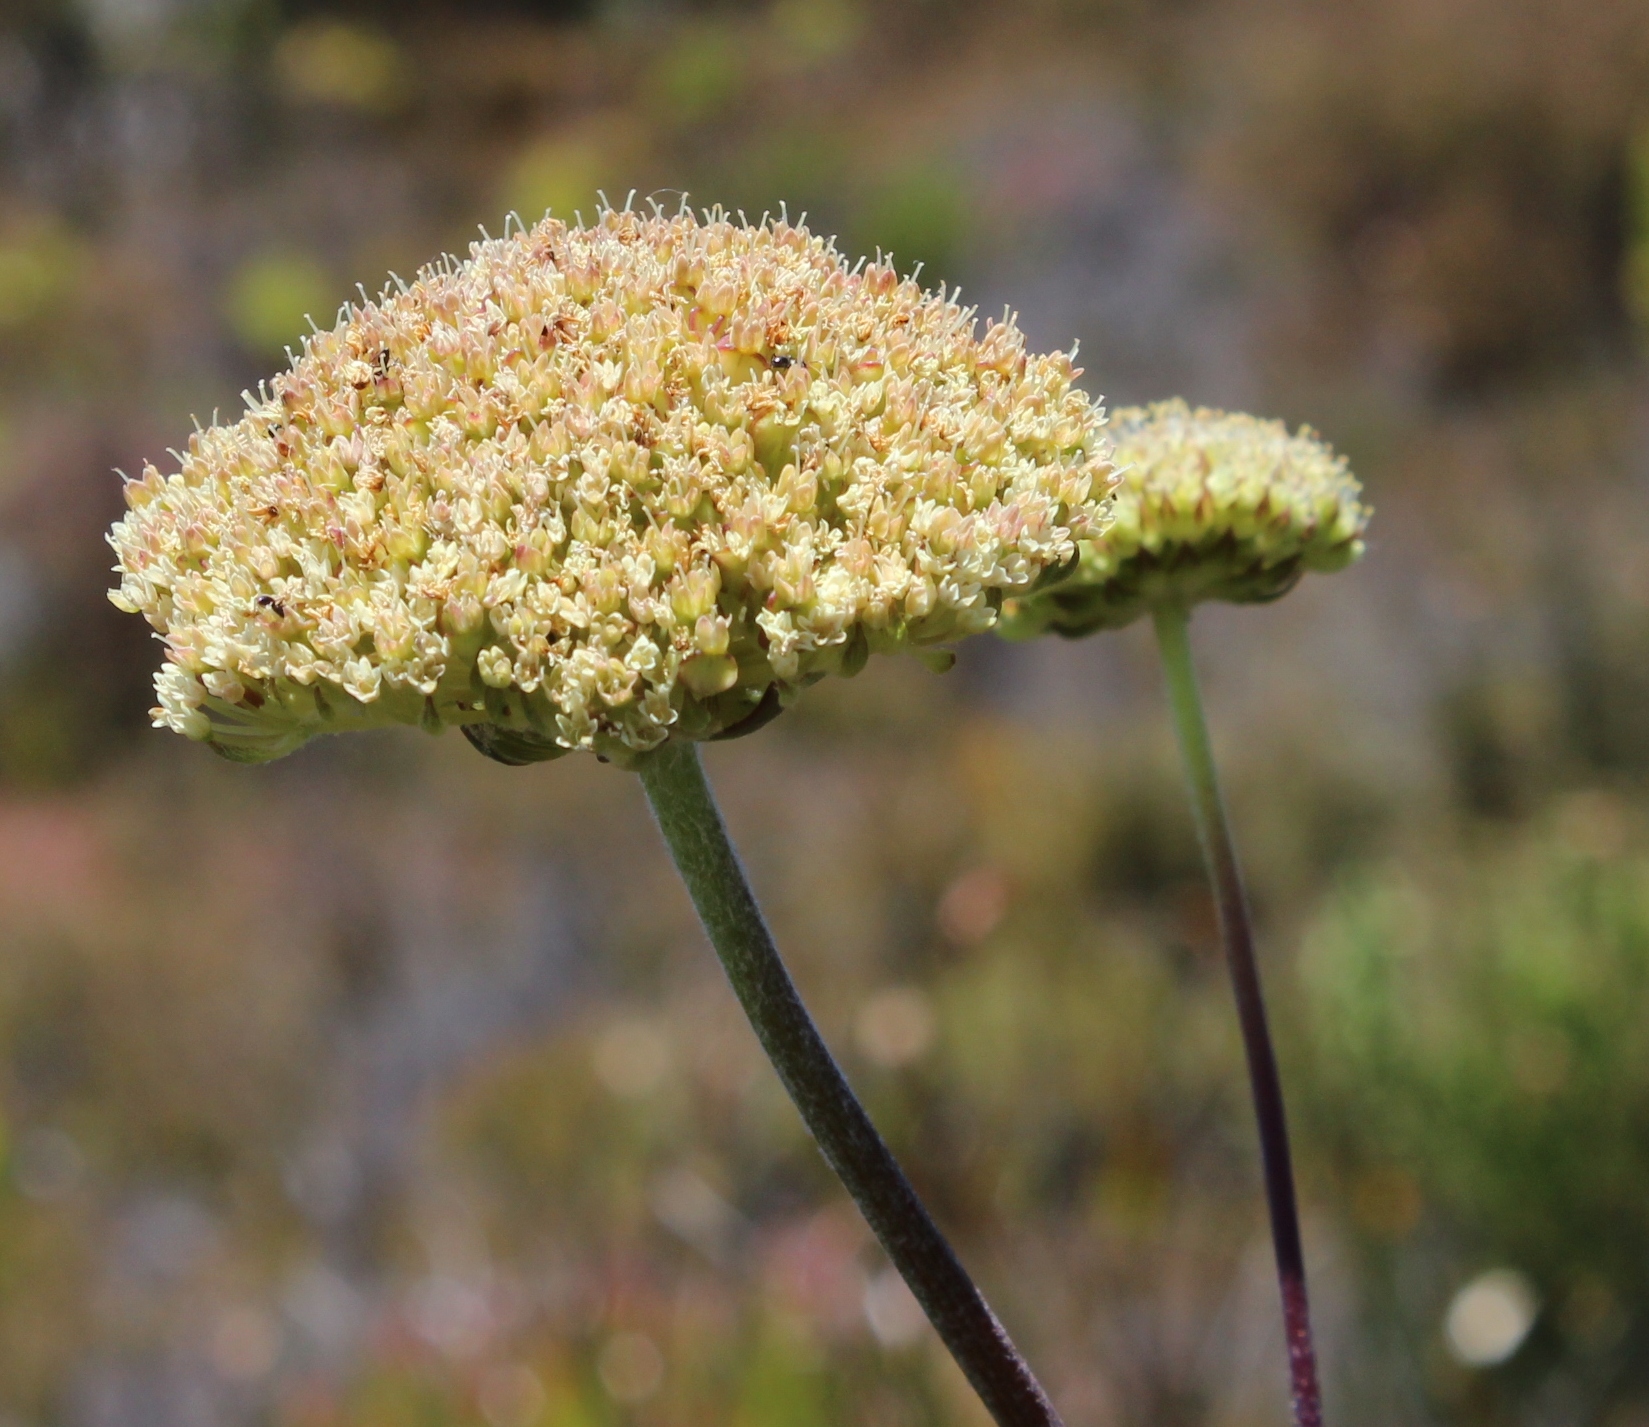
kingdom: Plantae
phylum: Tracheophyta
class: Magnoliopsida
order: Apiales
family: Apiaceae
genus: Hermas
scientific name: Hermas villosa
